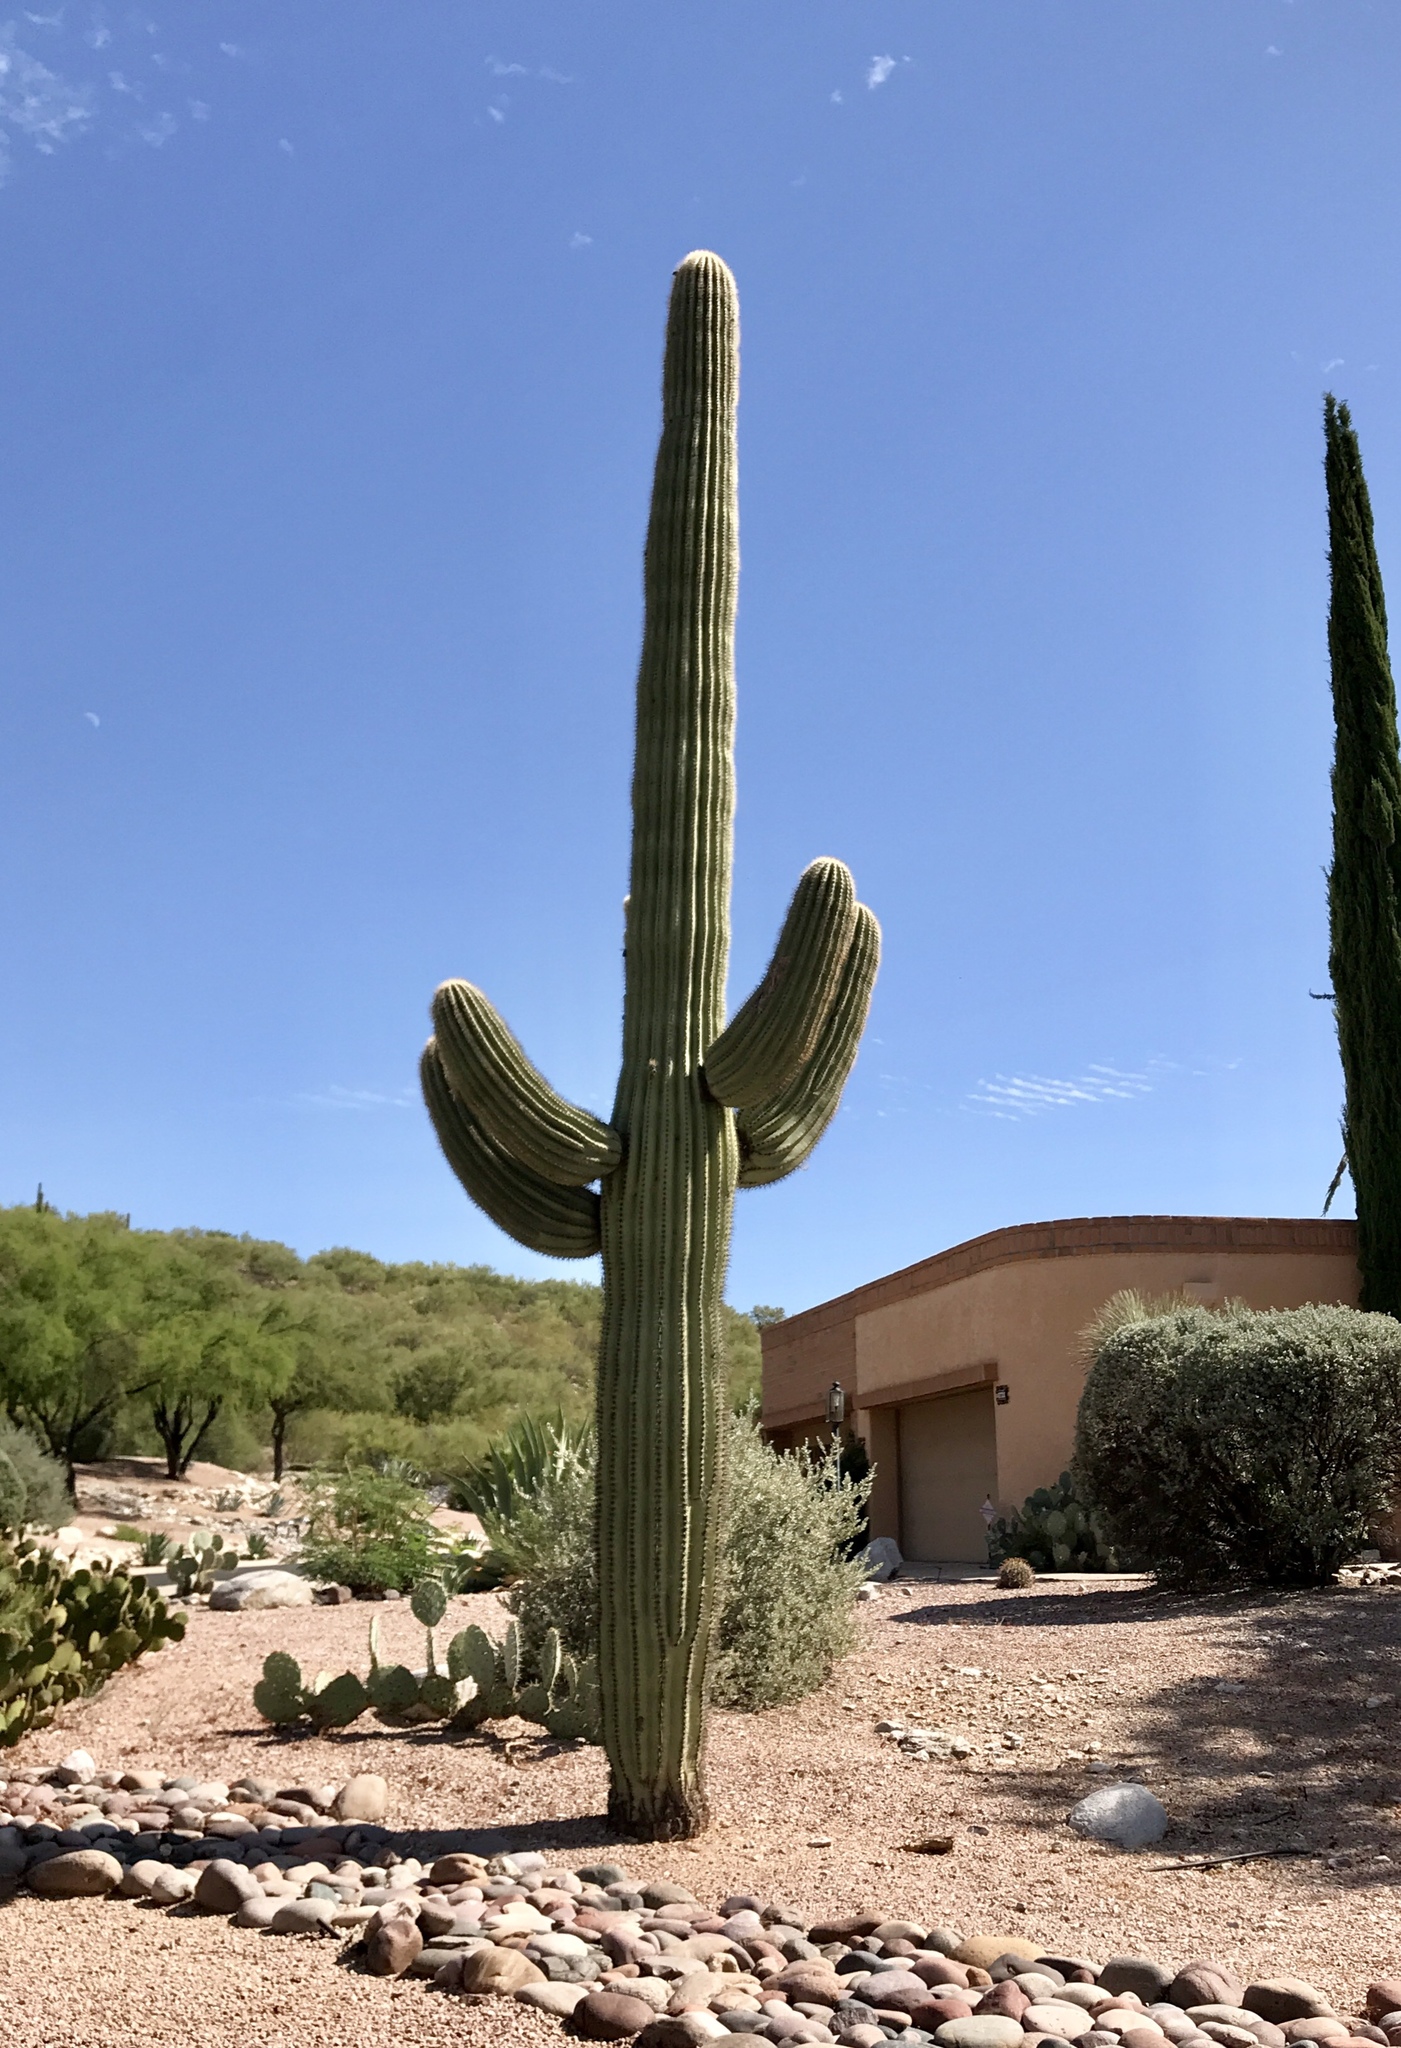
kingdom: Plantae
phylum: Tracheophyta
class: Magnoliopsida
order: Caryophyllales
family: Cactaceae
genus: Carnegiea
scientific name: Carnegiea gigantea
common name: Saguaro
